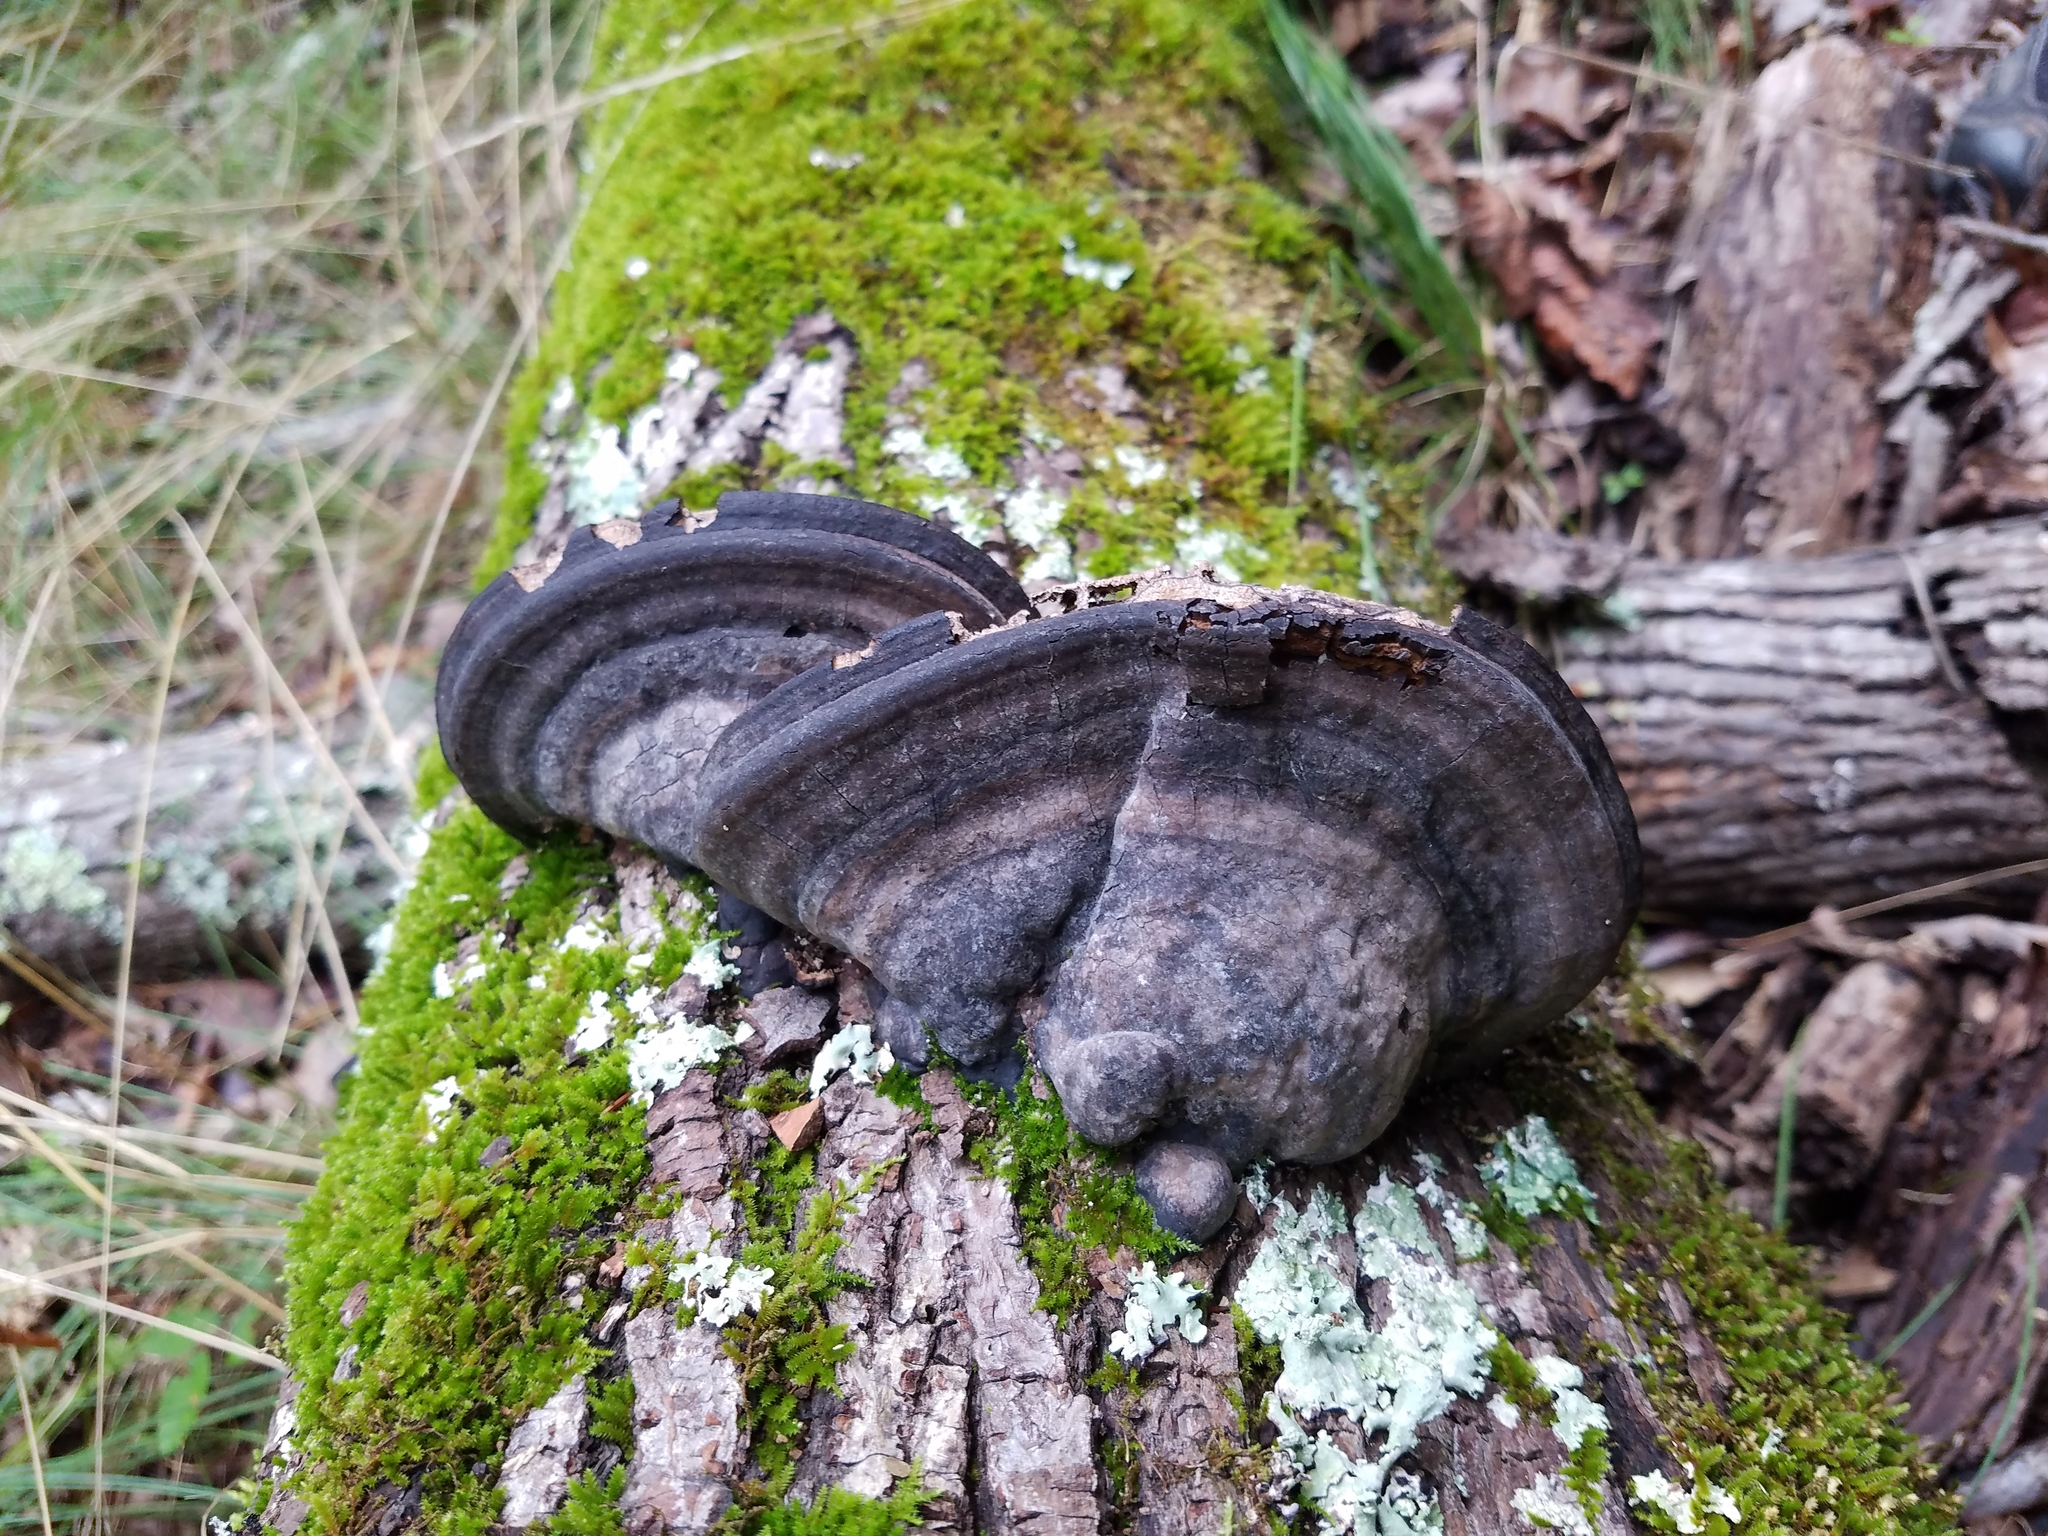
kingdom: Fungi
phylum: Basidiomycota
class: Agaricomycetes
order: Polyporales
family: Polyporaceae
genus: Fomes
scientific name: Fomes fasciatus
